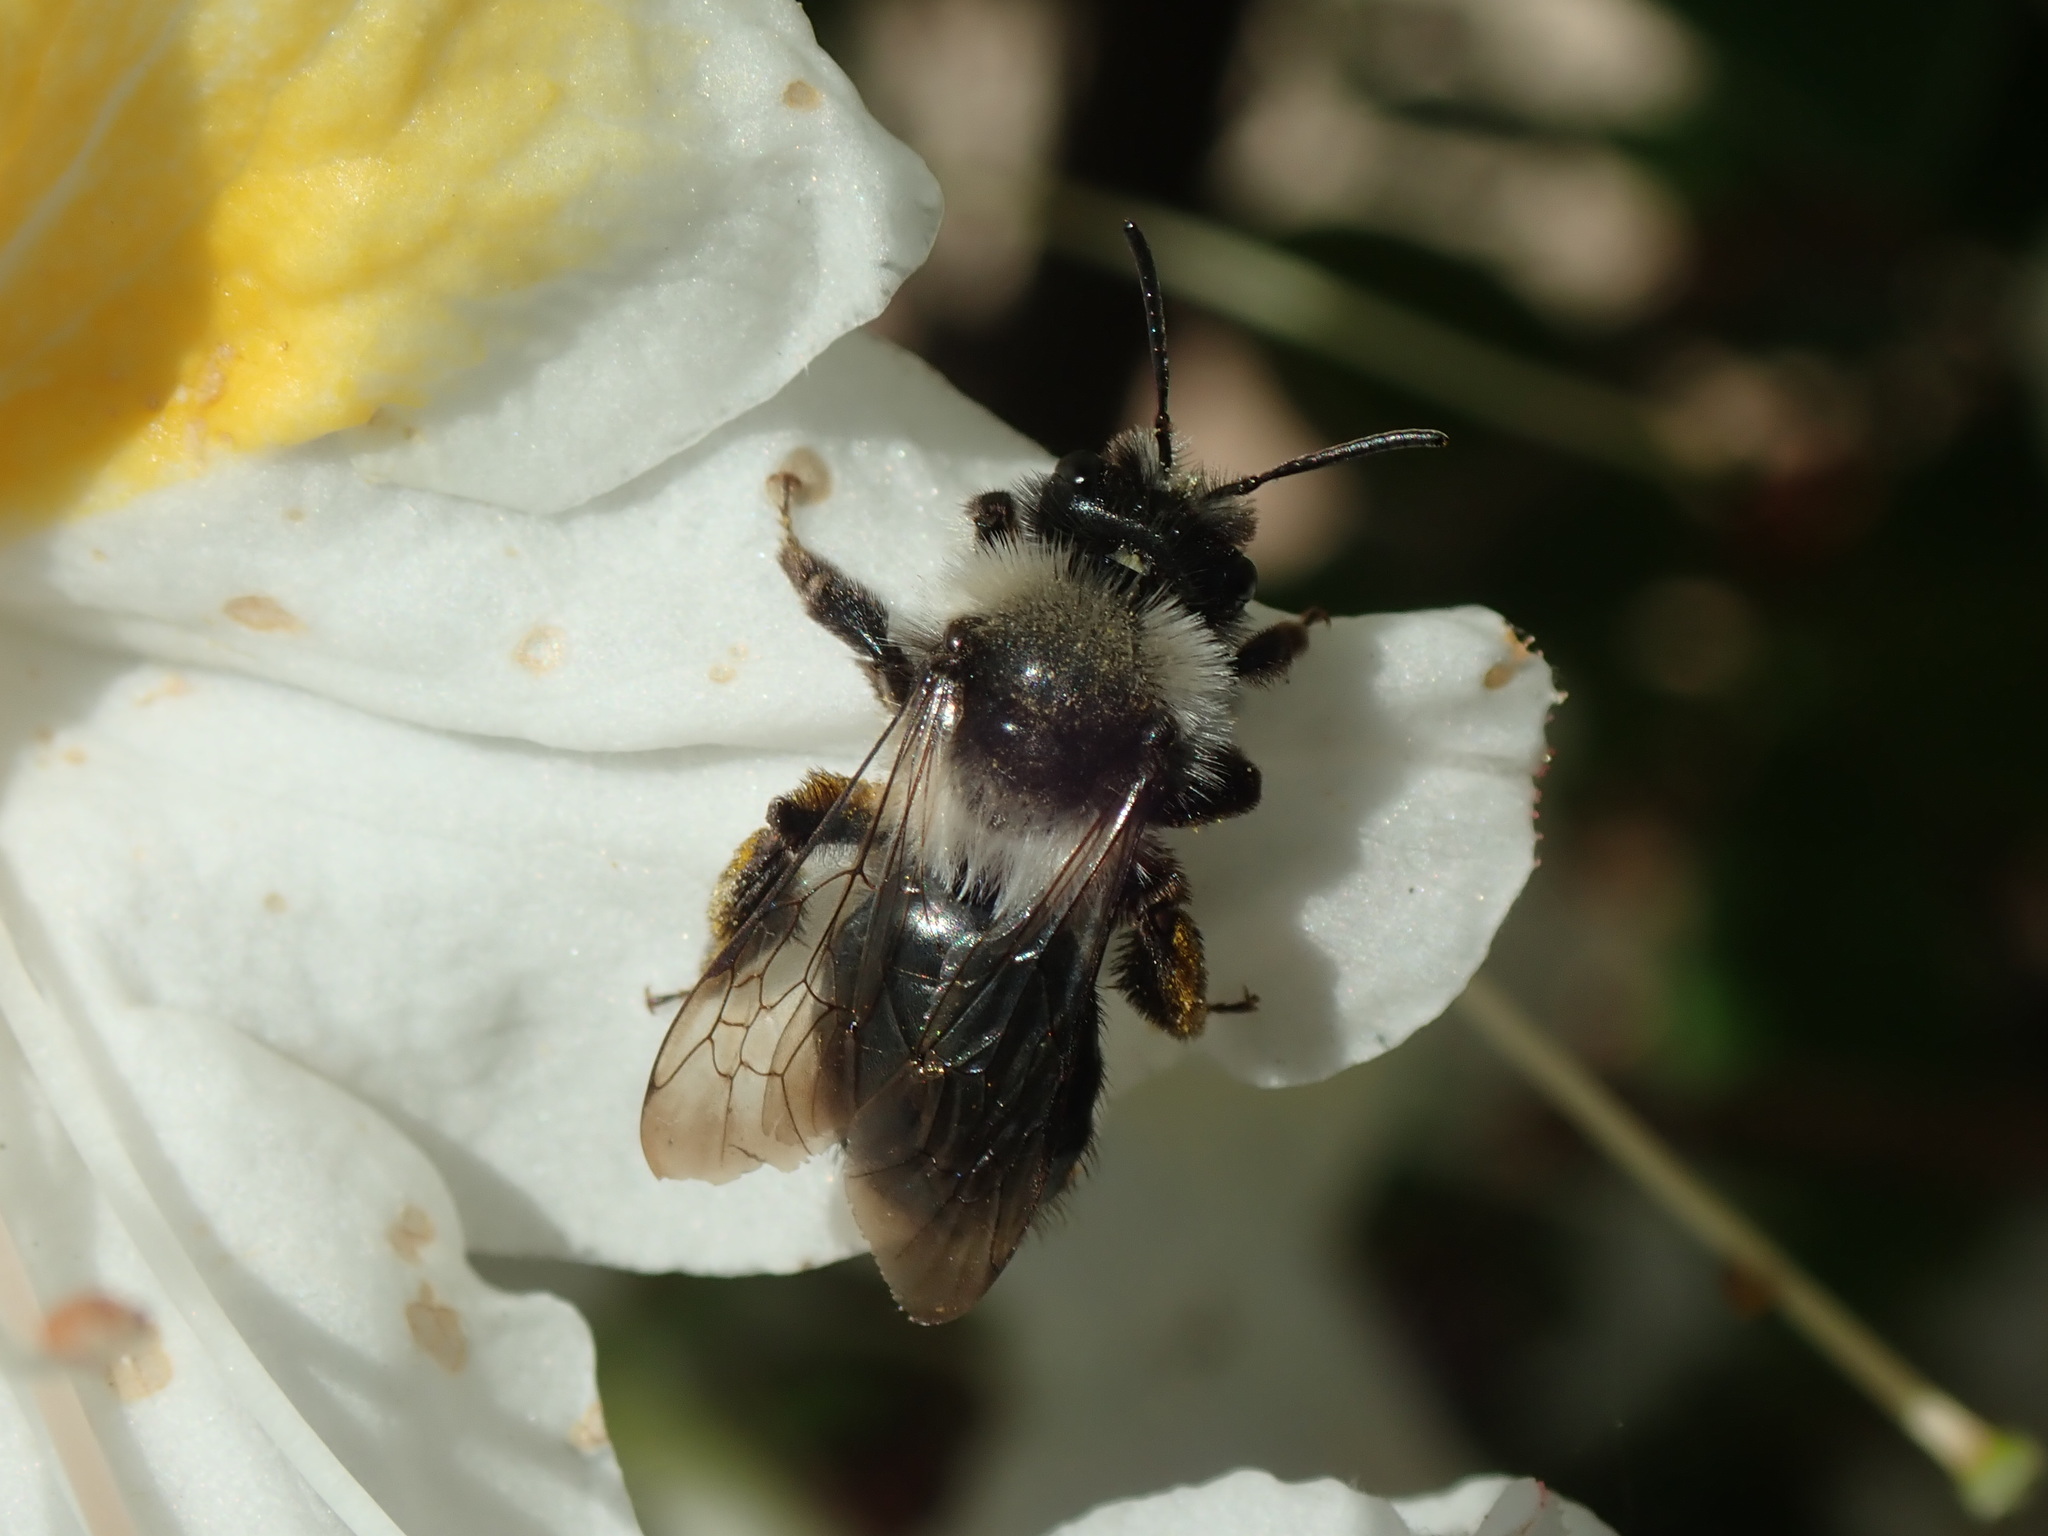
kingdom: Animalia
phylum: Arthropoda
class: Insecta
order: Hymenoptera
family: Andrenidae
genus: Andrena
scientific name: Andrena cineraria
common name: Ashy mining bee
